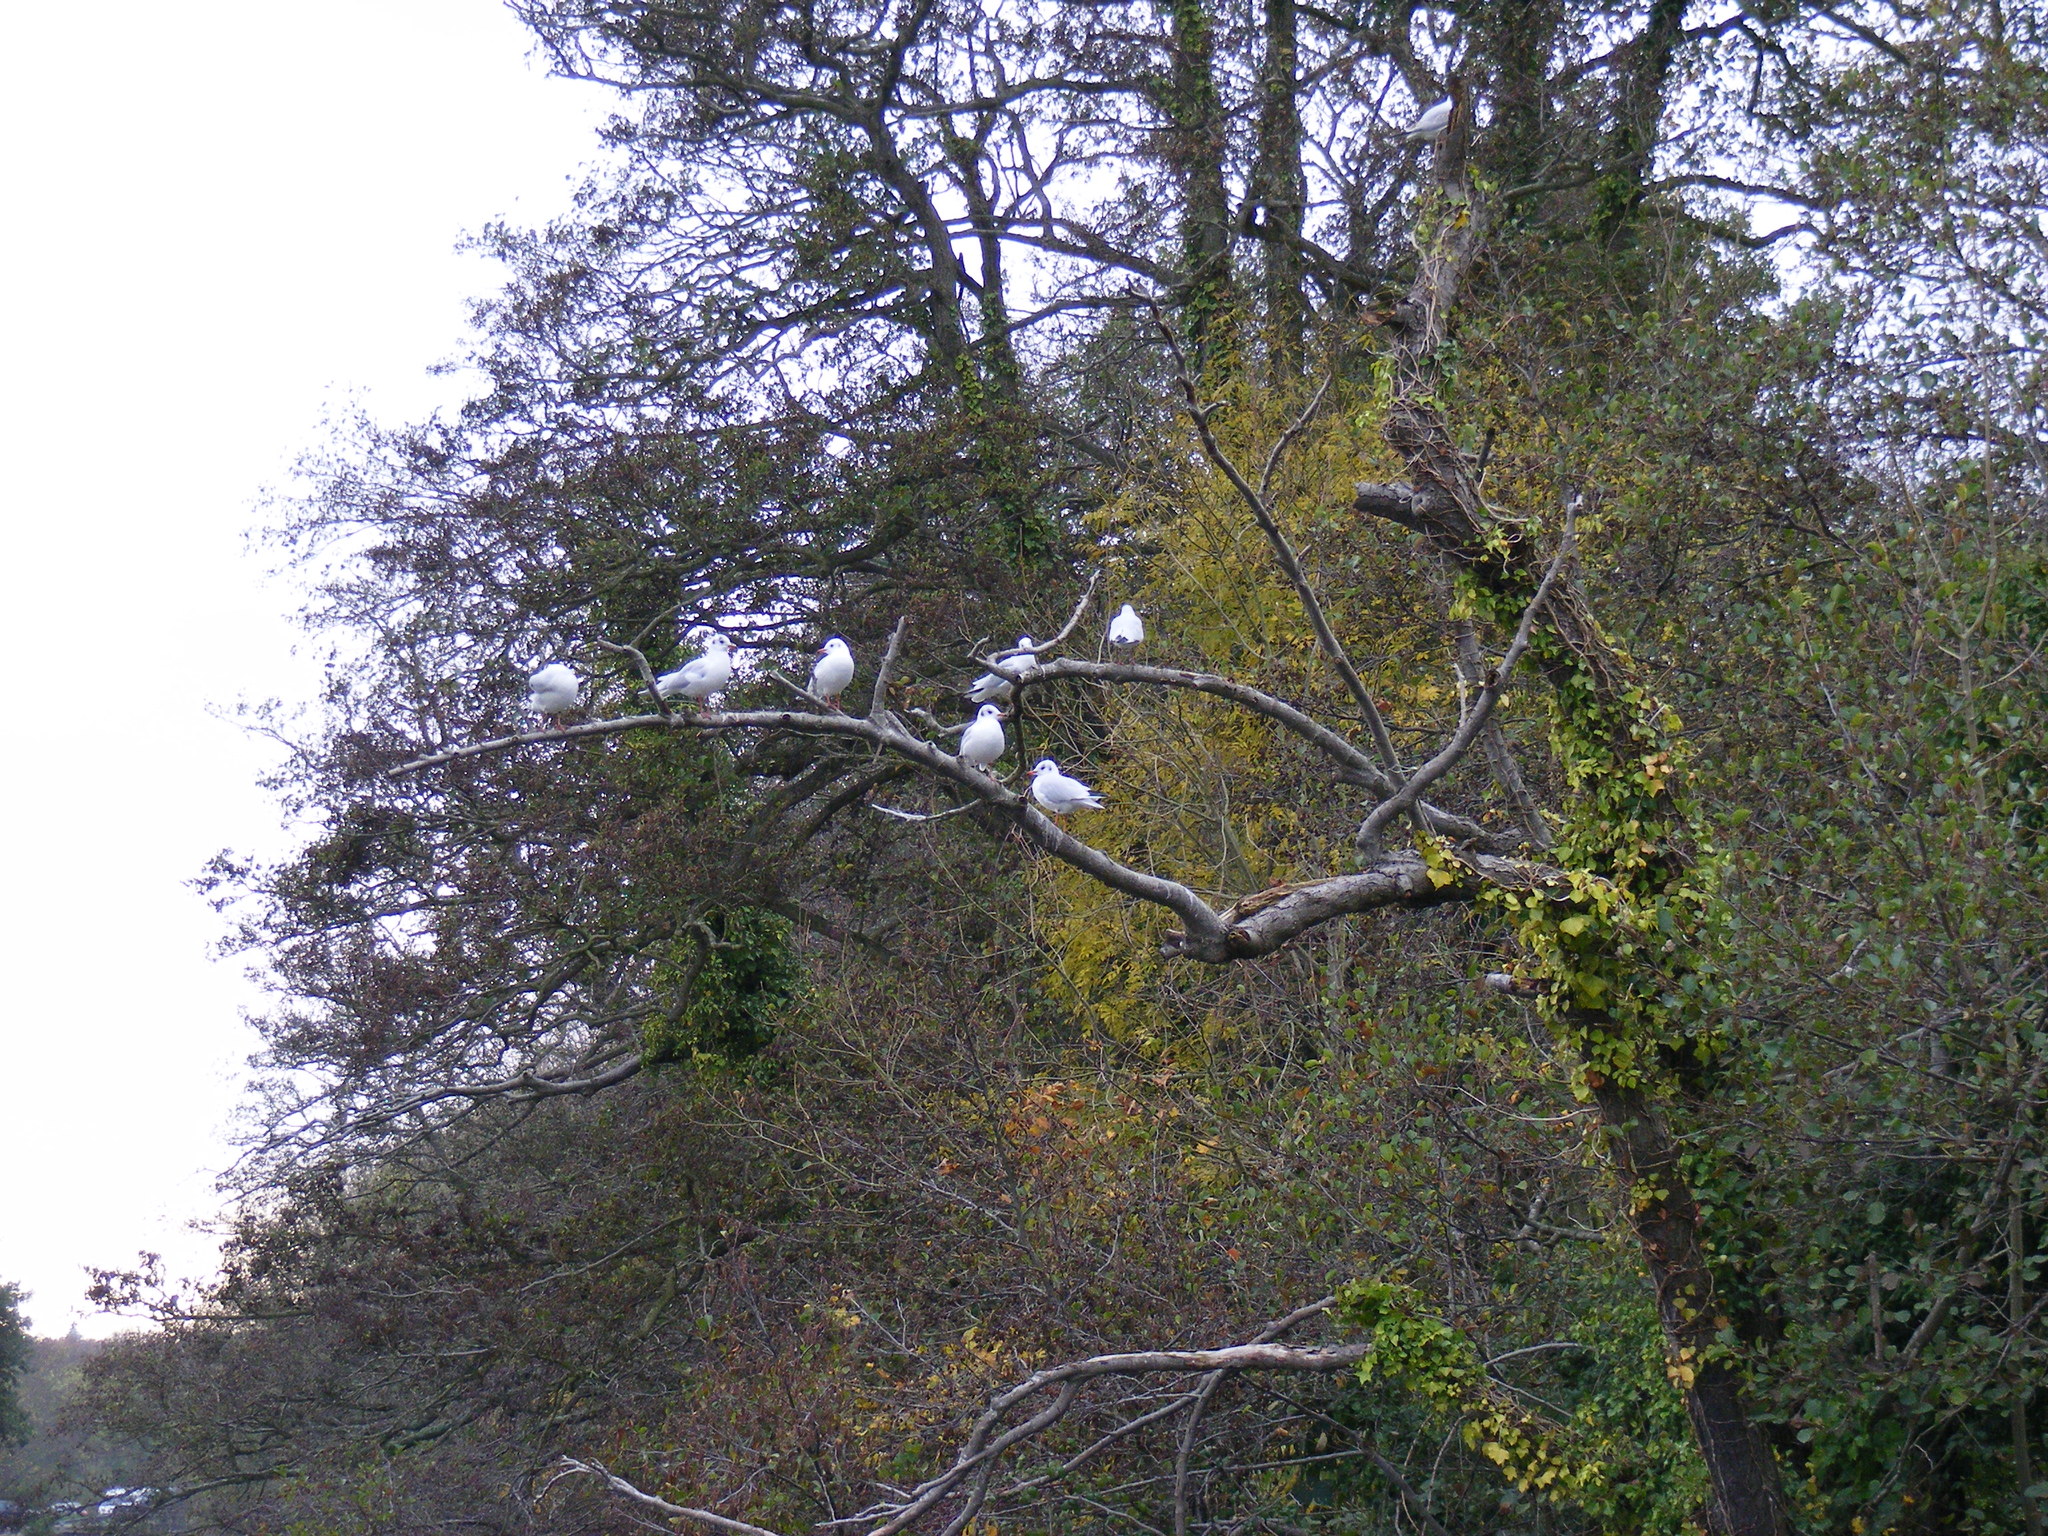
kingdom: Animalia
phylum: Chordata
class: Aves
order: Charadriiformes
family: Laridae
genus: Chroicocephalus
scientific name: Chroicocephalus ridibundus
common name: Black-headed gull
